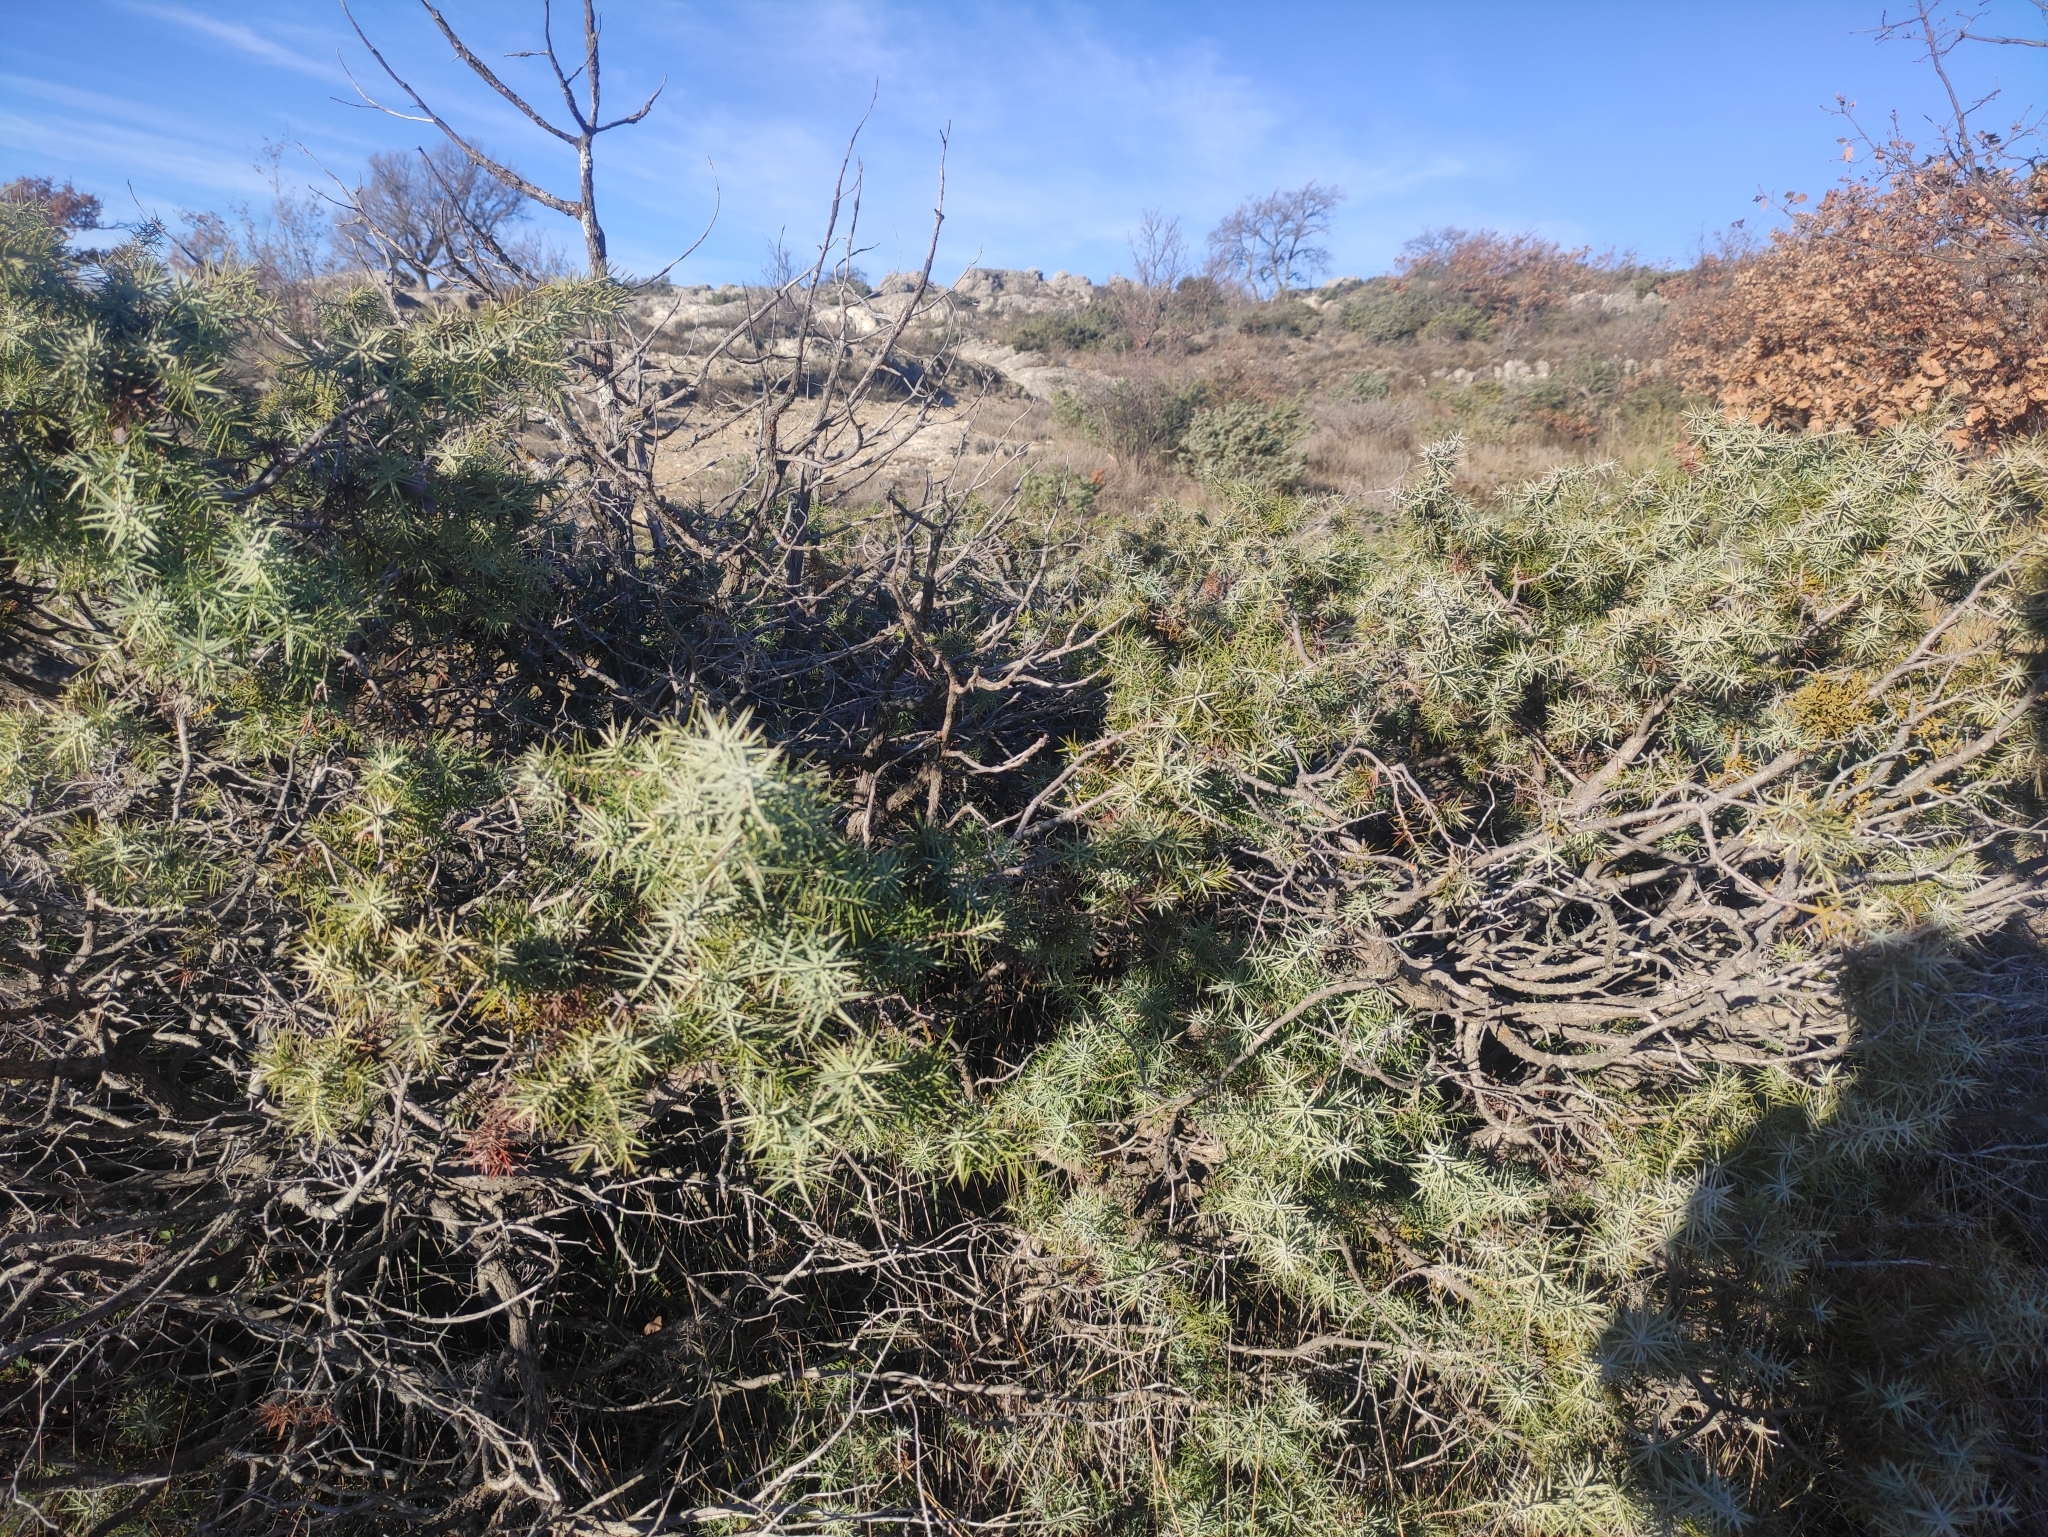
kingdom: Plantae
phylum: Tracheophyta
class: Magnoliopsida
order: Santalales
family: Viscaceae
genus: Arceuthobium
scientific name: Arceuthobium oxycedri
